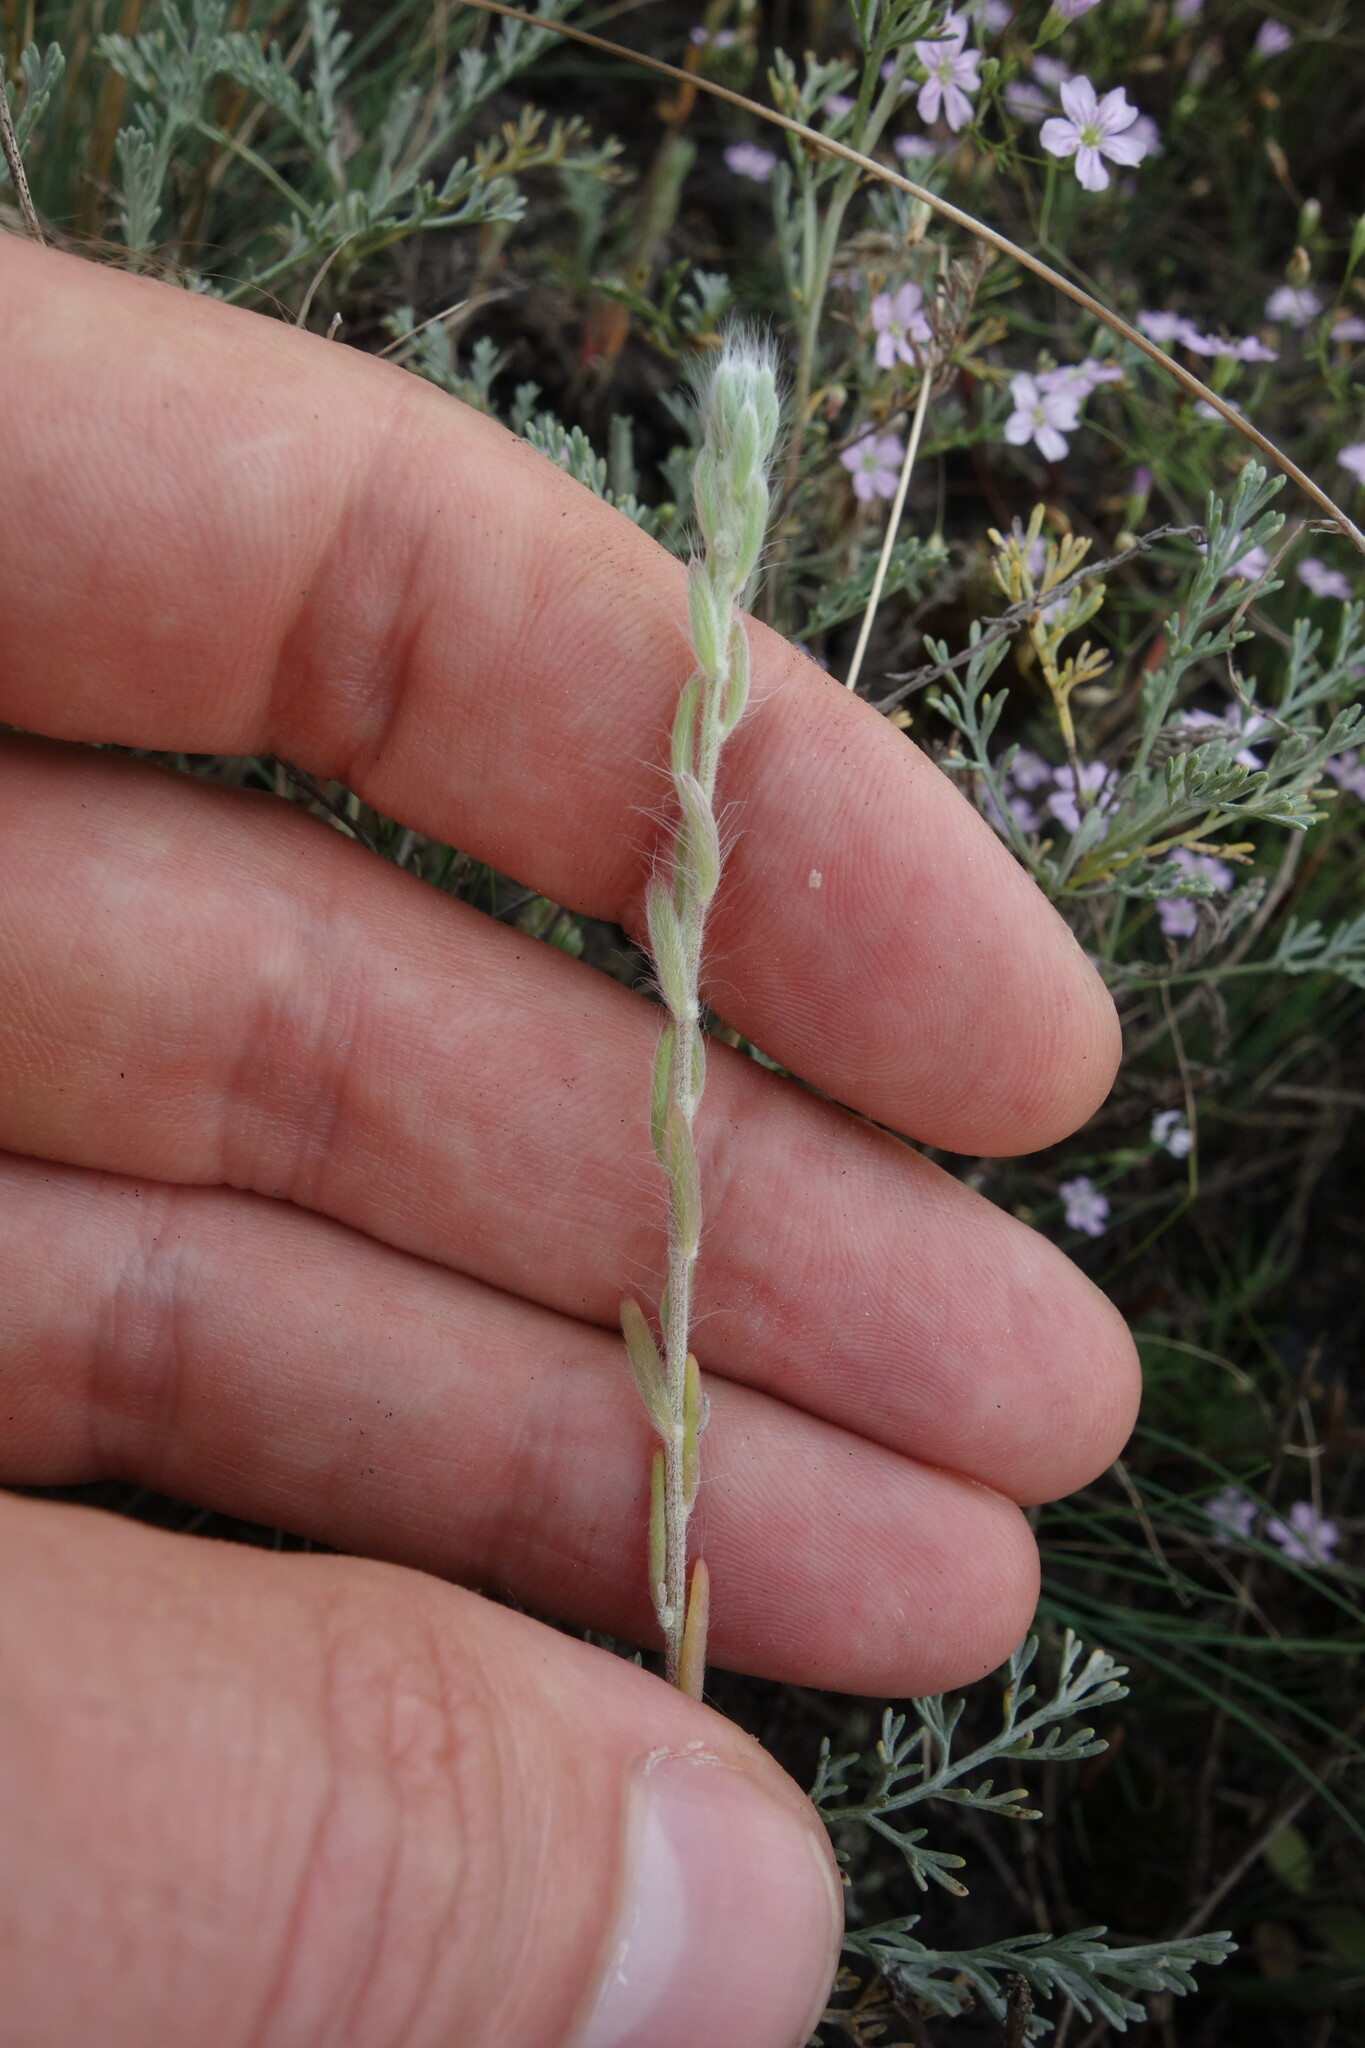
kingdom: Plantae
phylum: Tracheophyta
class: Magnoliopsida
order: Caryophyllales
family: Amaranthaceae
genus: Sedobassia
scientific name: Sedobassia sedoides
